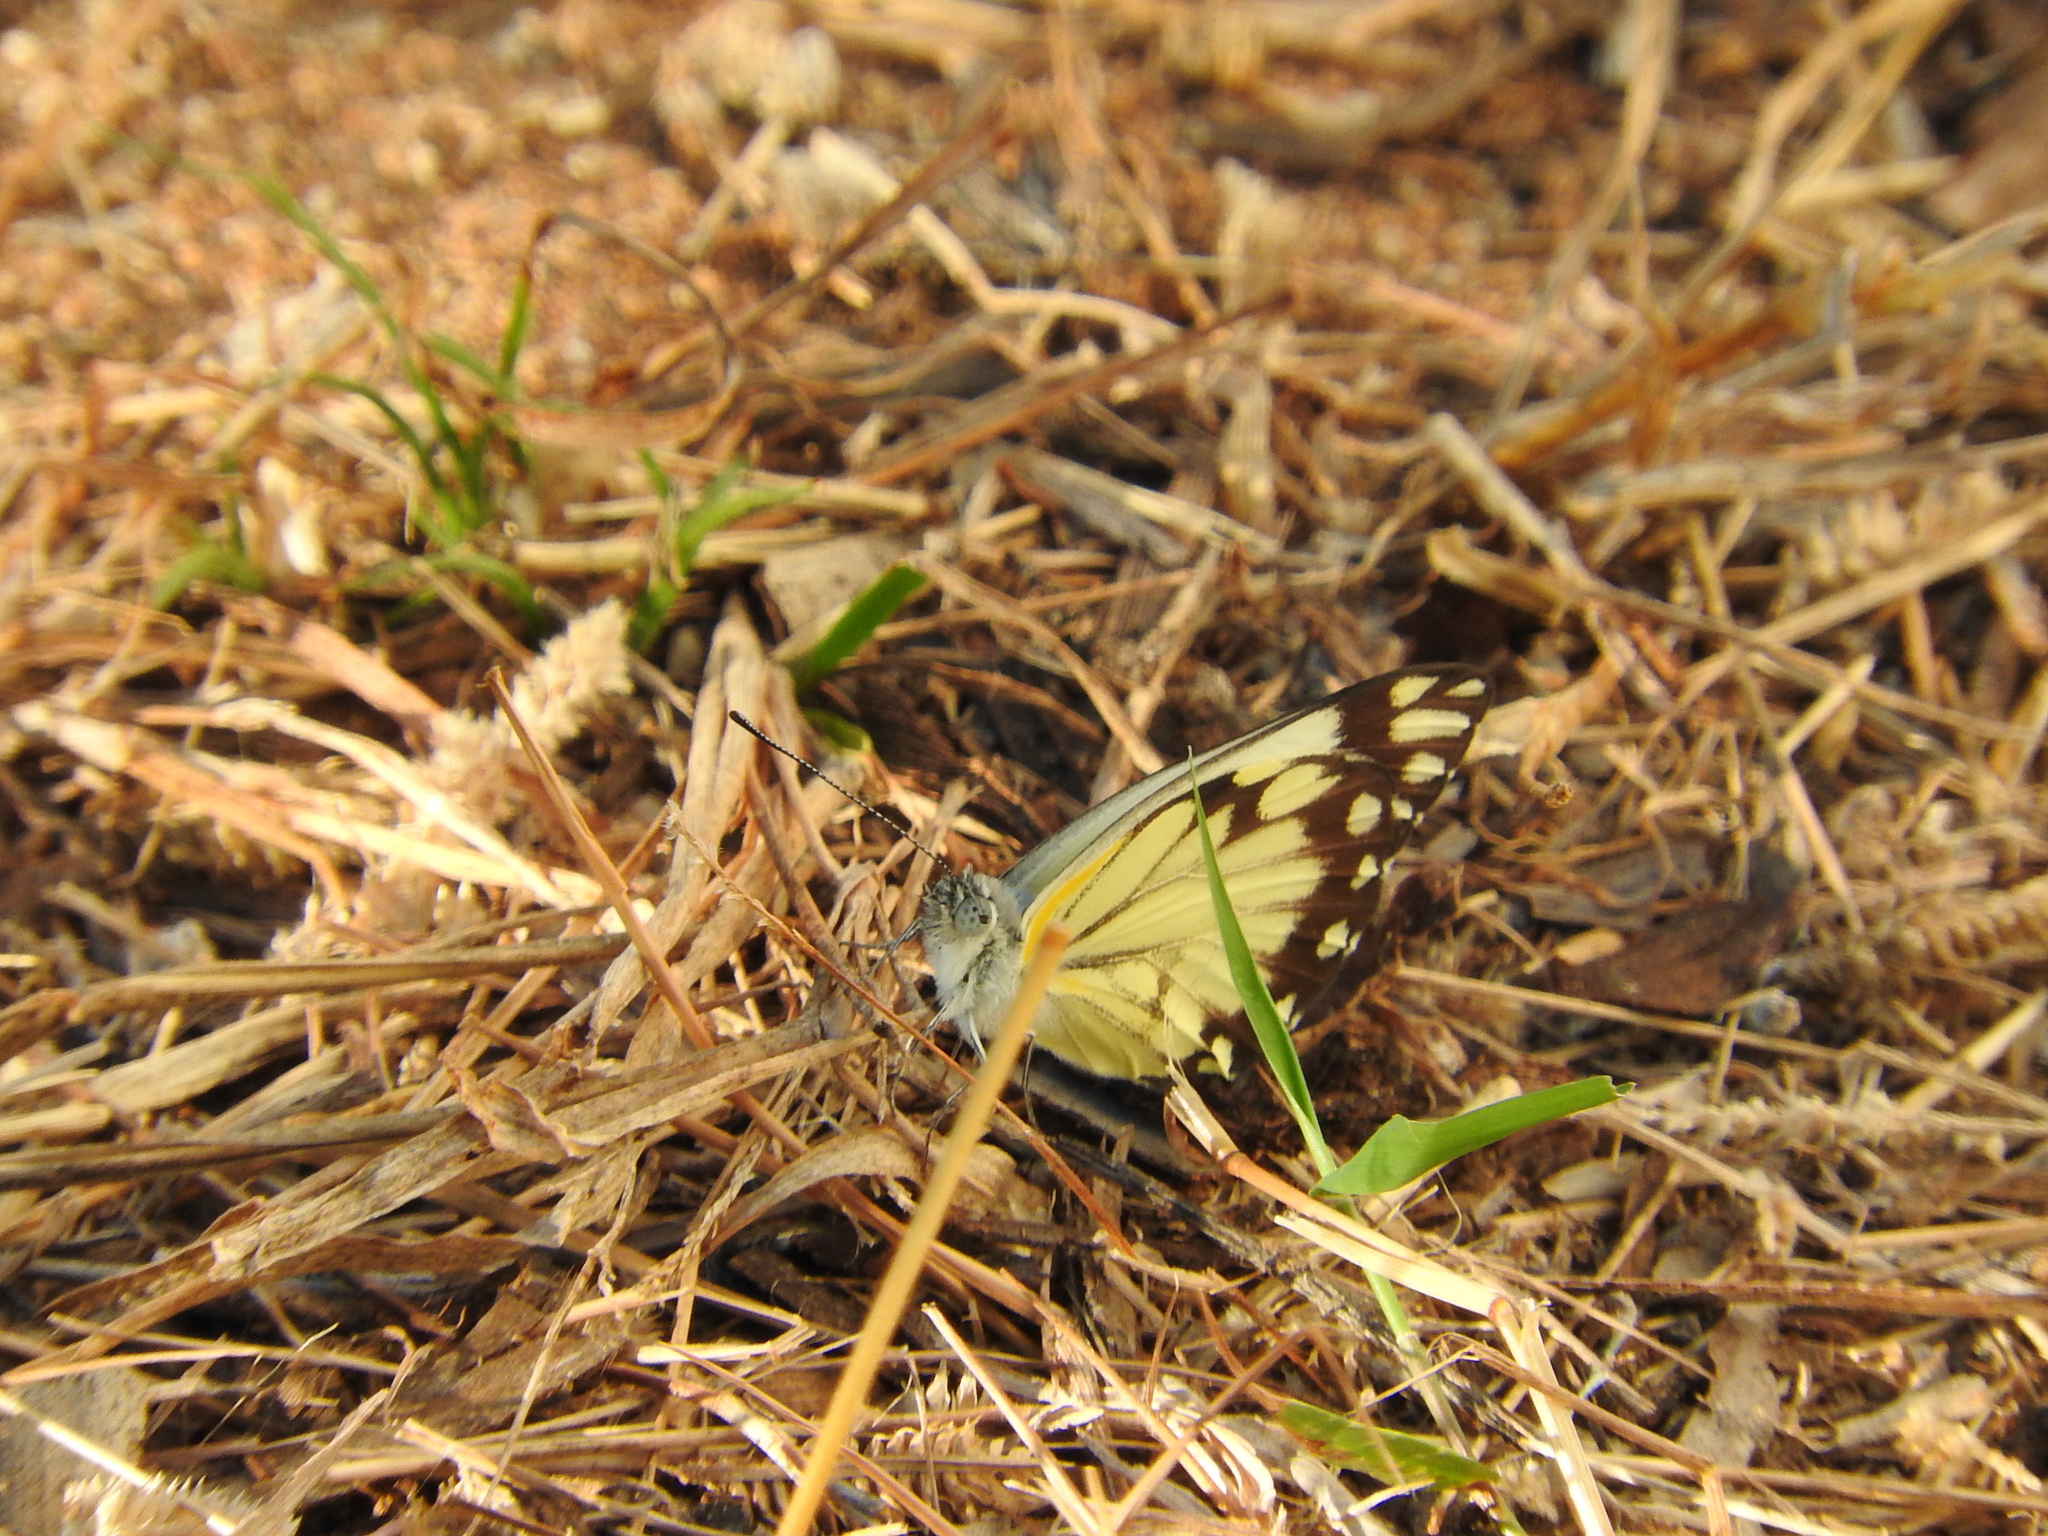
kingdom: Animalia
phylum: Arthropoda
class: Insecta
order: Lepidoptera
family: Pieridae
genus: Belenois
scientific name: Belenois creona
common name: African caper white
